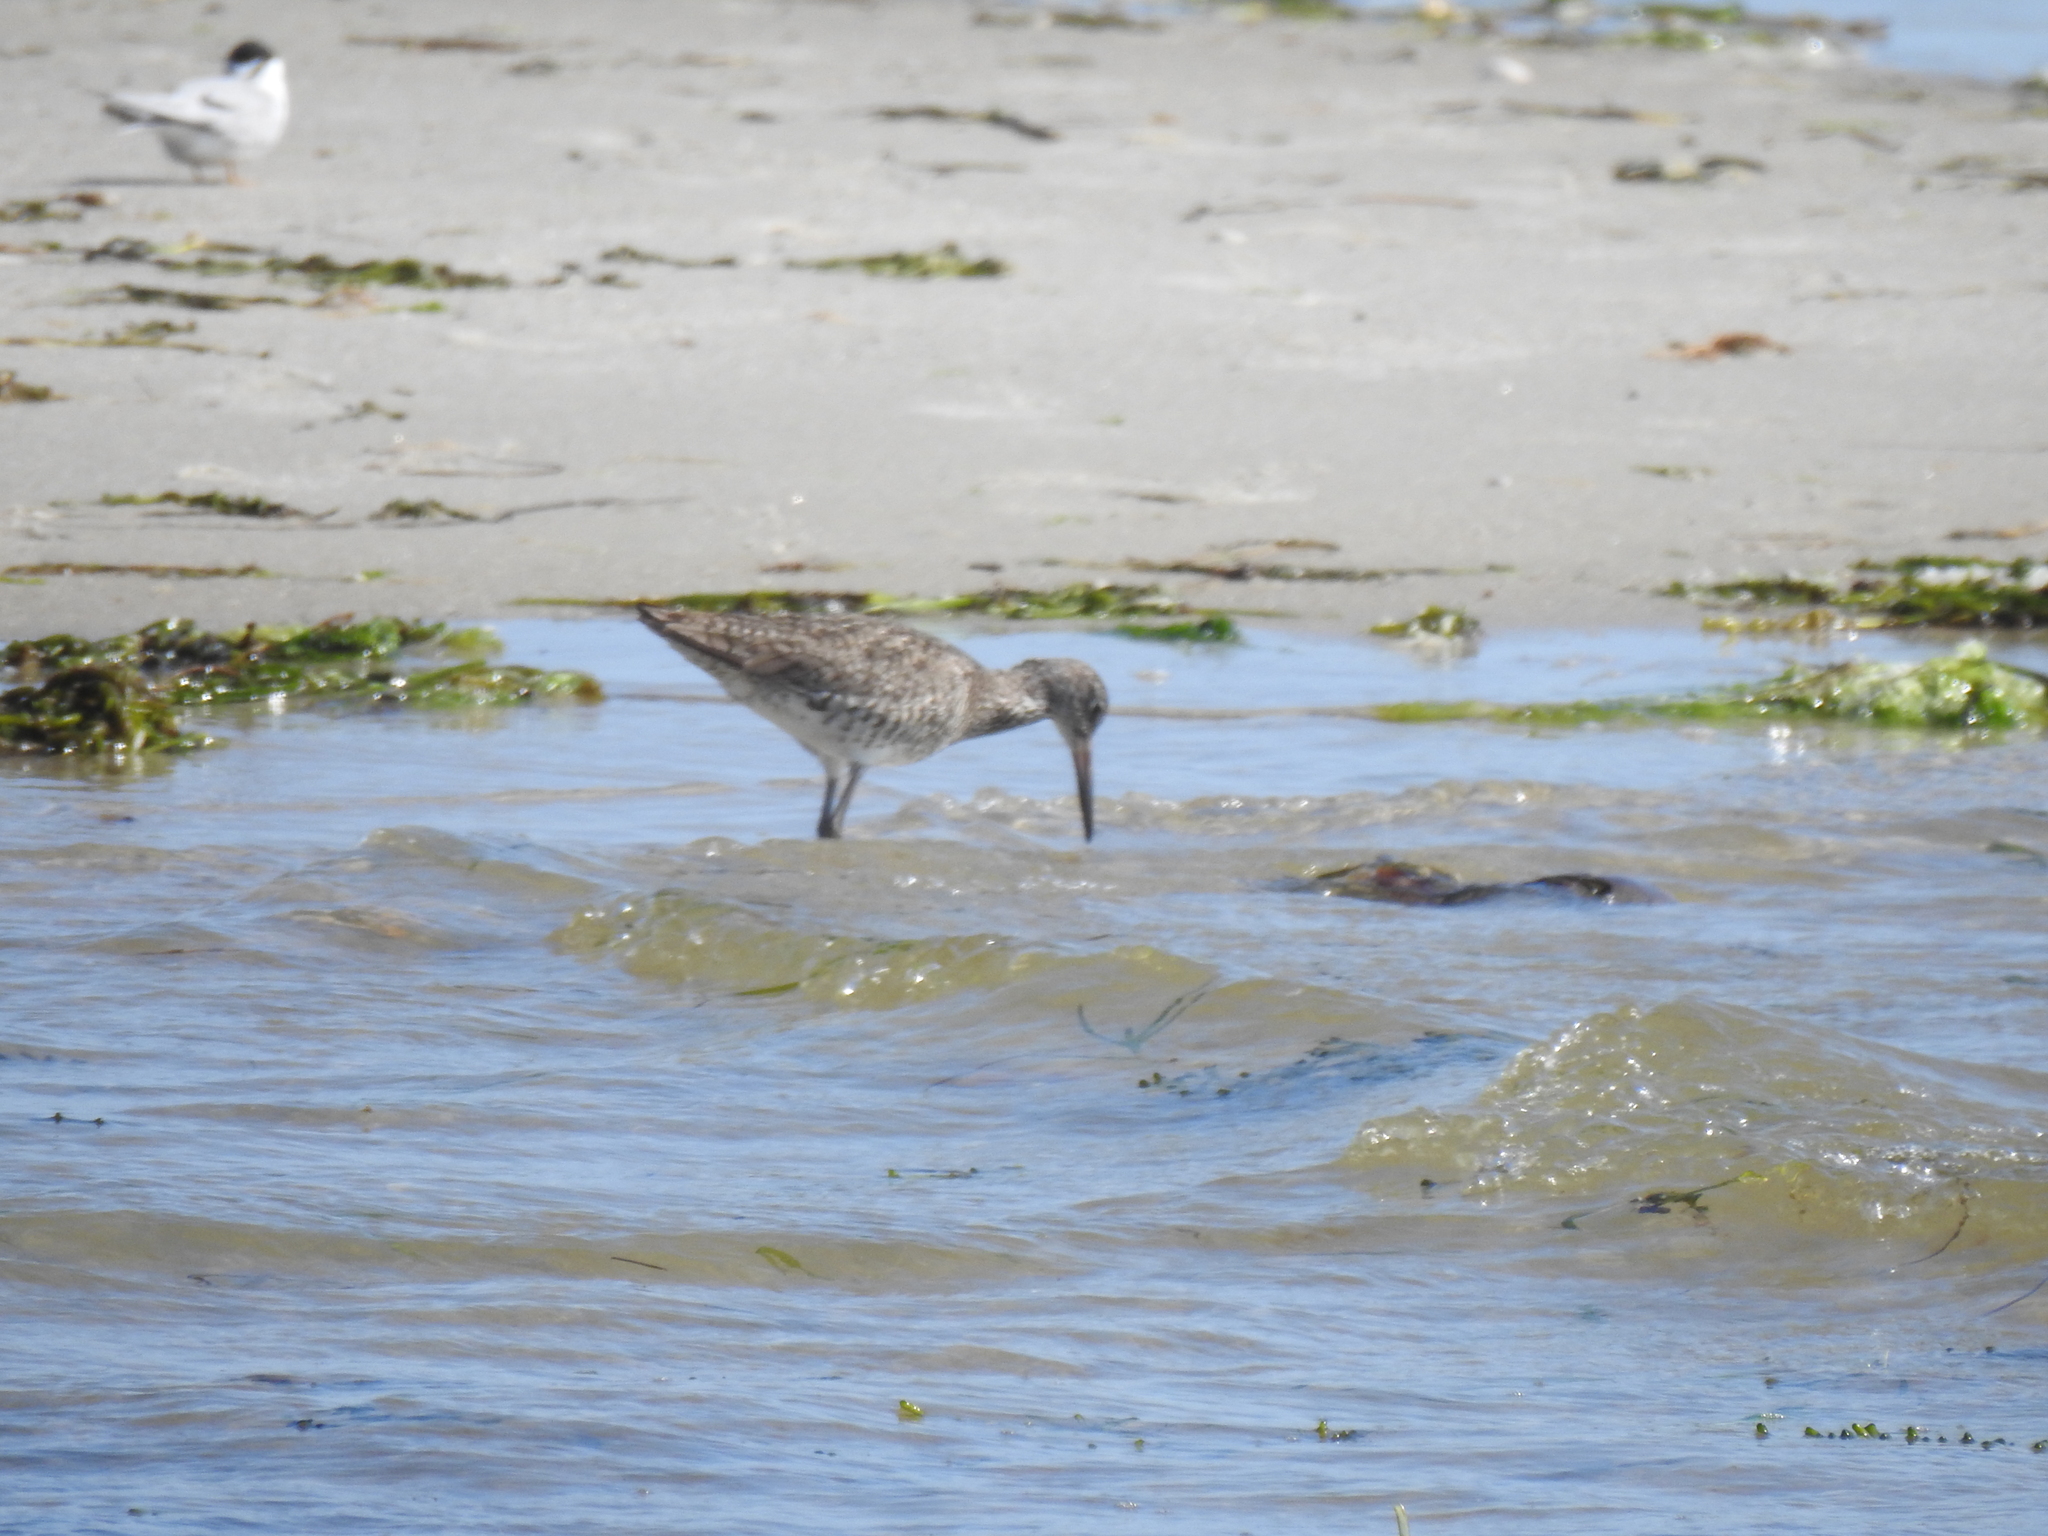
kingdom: Animalia
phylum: Chordata
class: Aves
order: Charadriiformes
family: Scolopacidae
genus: Tringa
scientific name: Tringa semipalmata
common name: Willet
